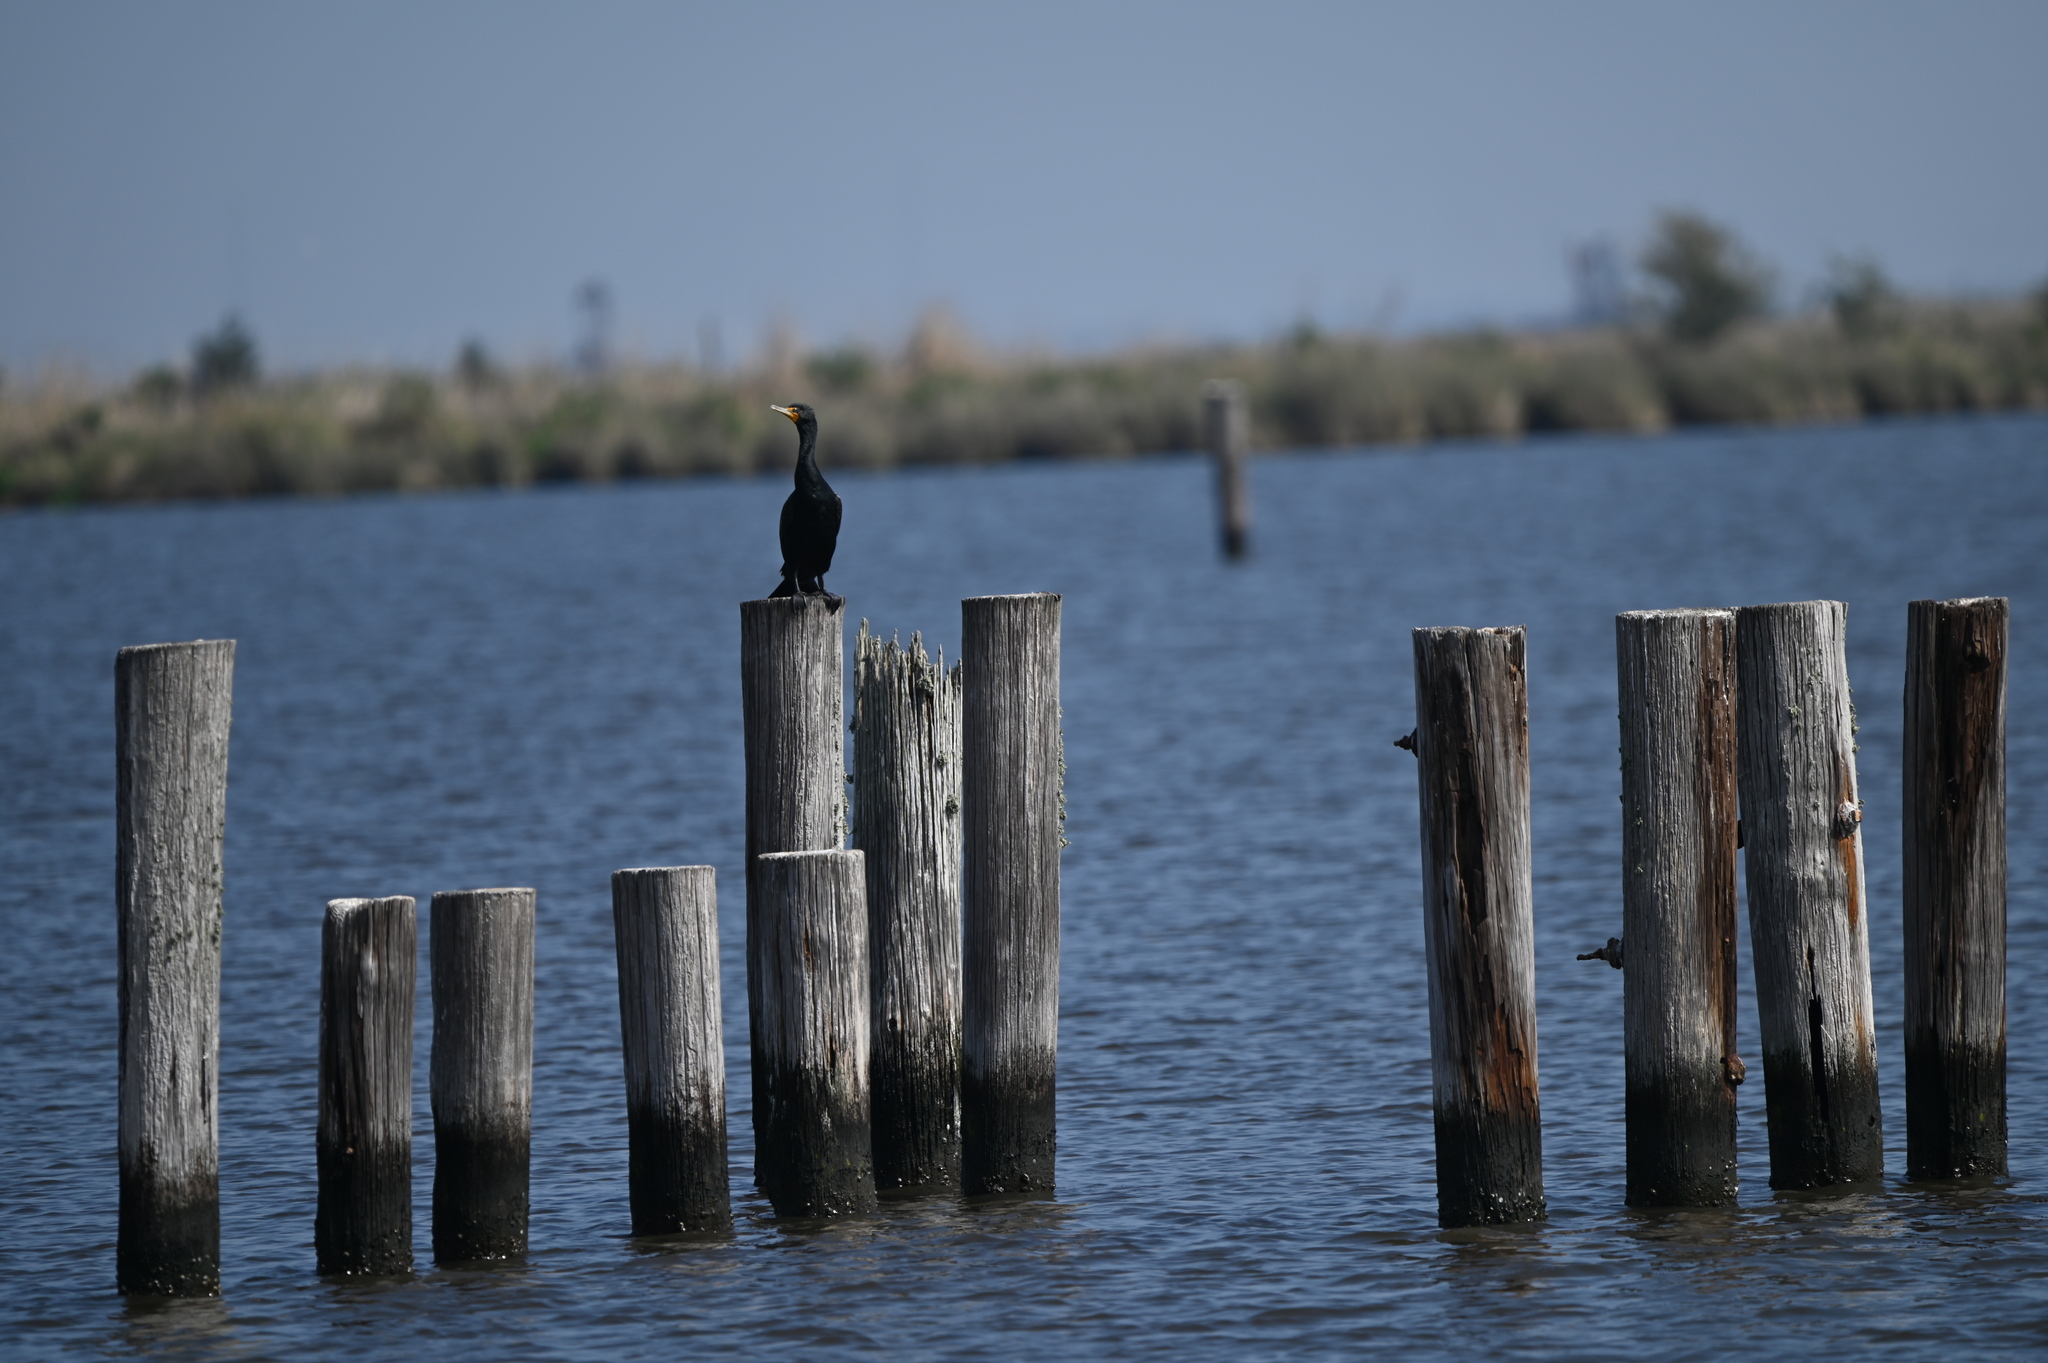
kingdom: Animalia
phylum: Chordata
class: Aves
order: Suliformes
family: Phalacrocoracidae
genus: Phalacrocorax
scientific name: Phalacrocorax auritus
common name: Double-crested cormorant
